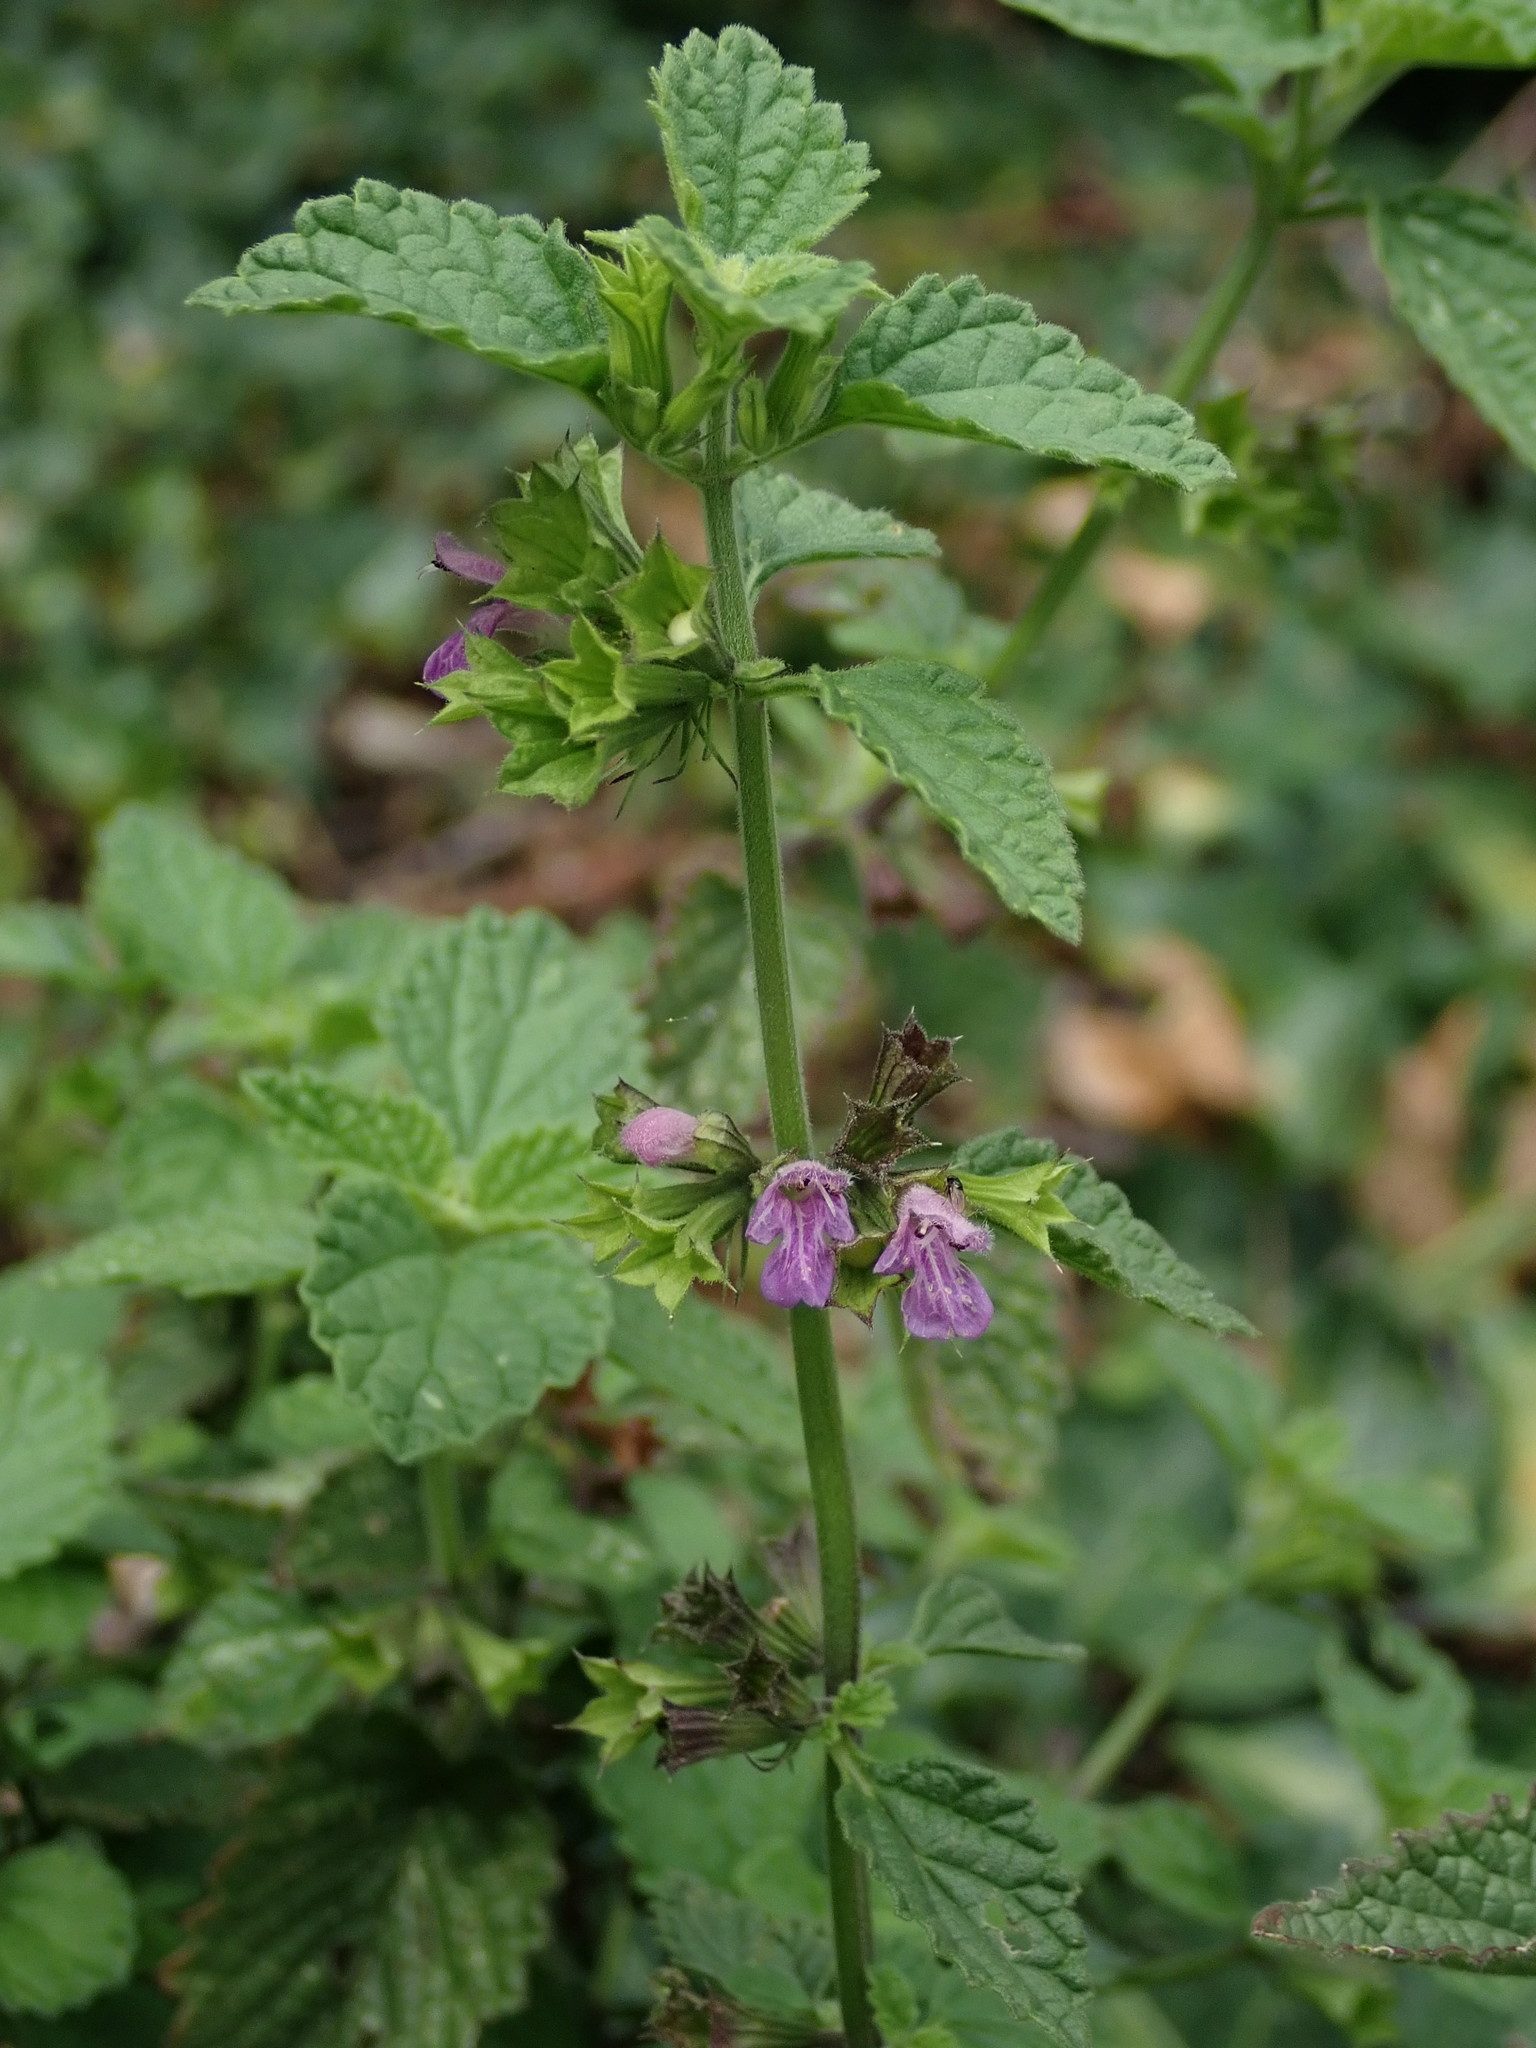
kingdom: Plantae
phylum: Tracheophyta
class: Magnoliopsida
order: Lamiales
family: Lamiaceae
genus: Ballota
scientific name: Ballota nigra
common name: Black horehound
